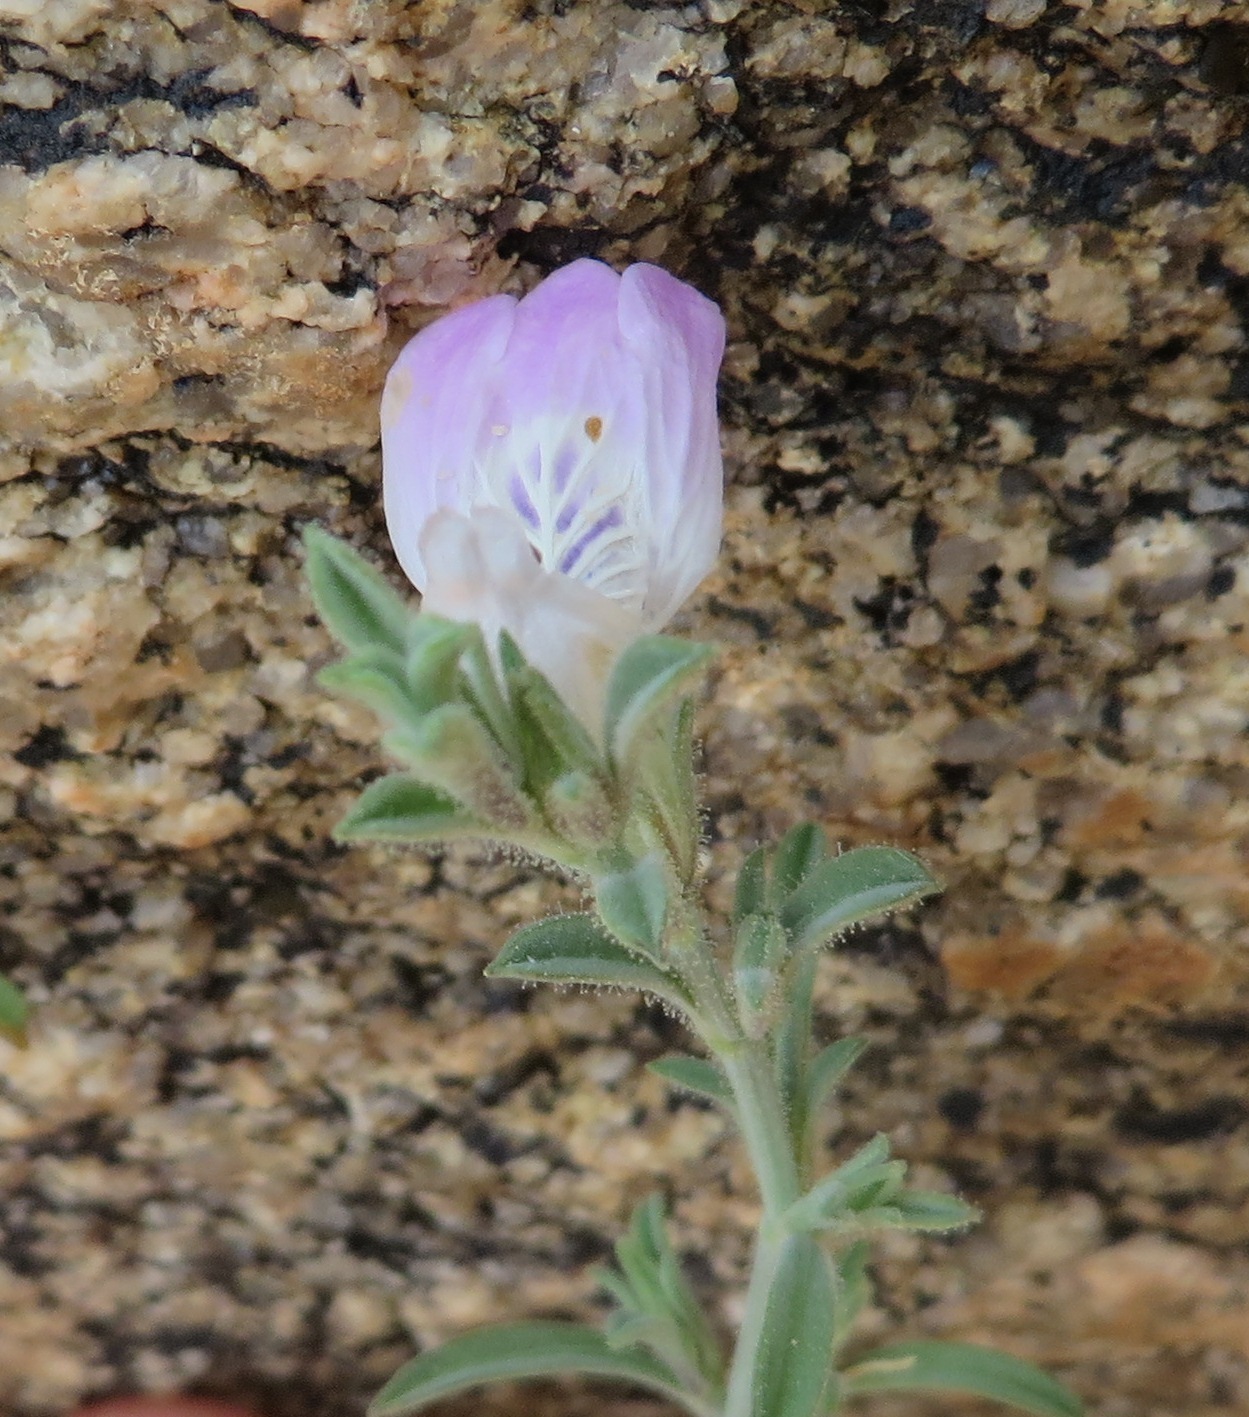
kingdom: Plantae
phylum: Tracheophyta
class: Magnoliopsida
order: Lamiales
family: Acanthaceae
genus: Pogonospermum
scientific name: Pogonospermum
